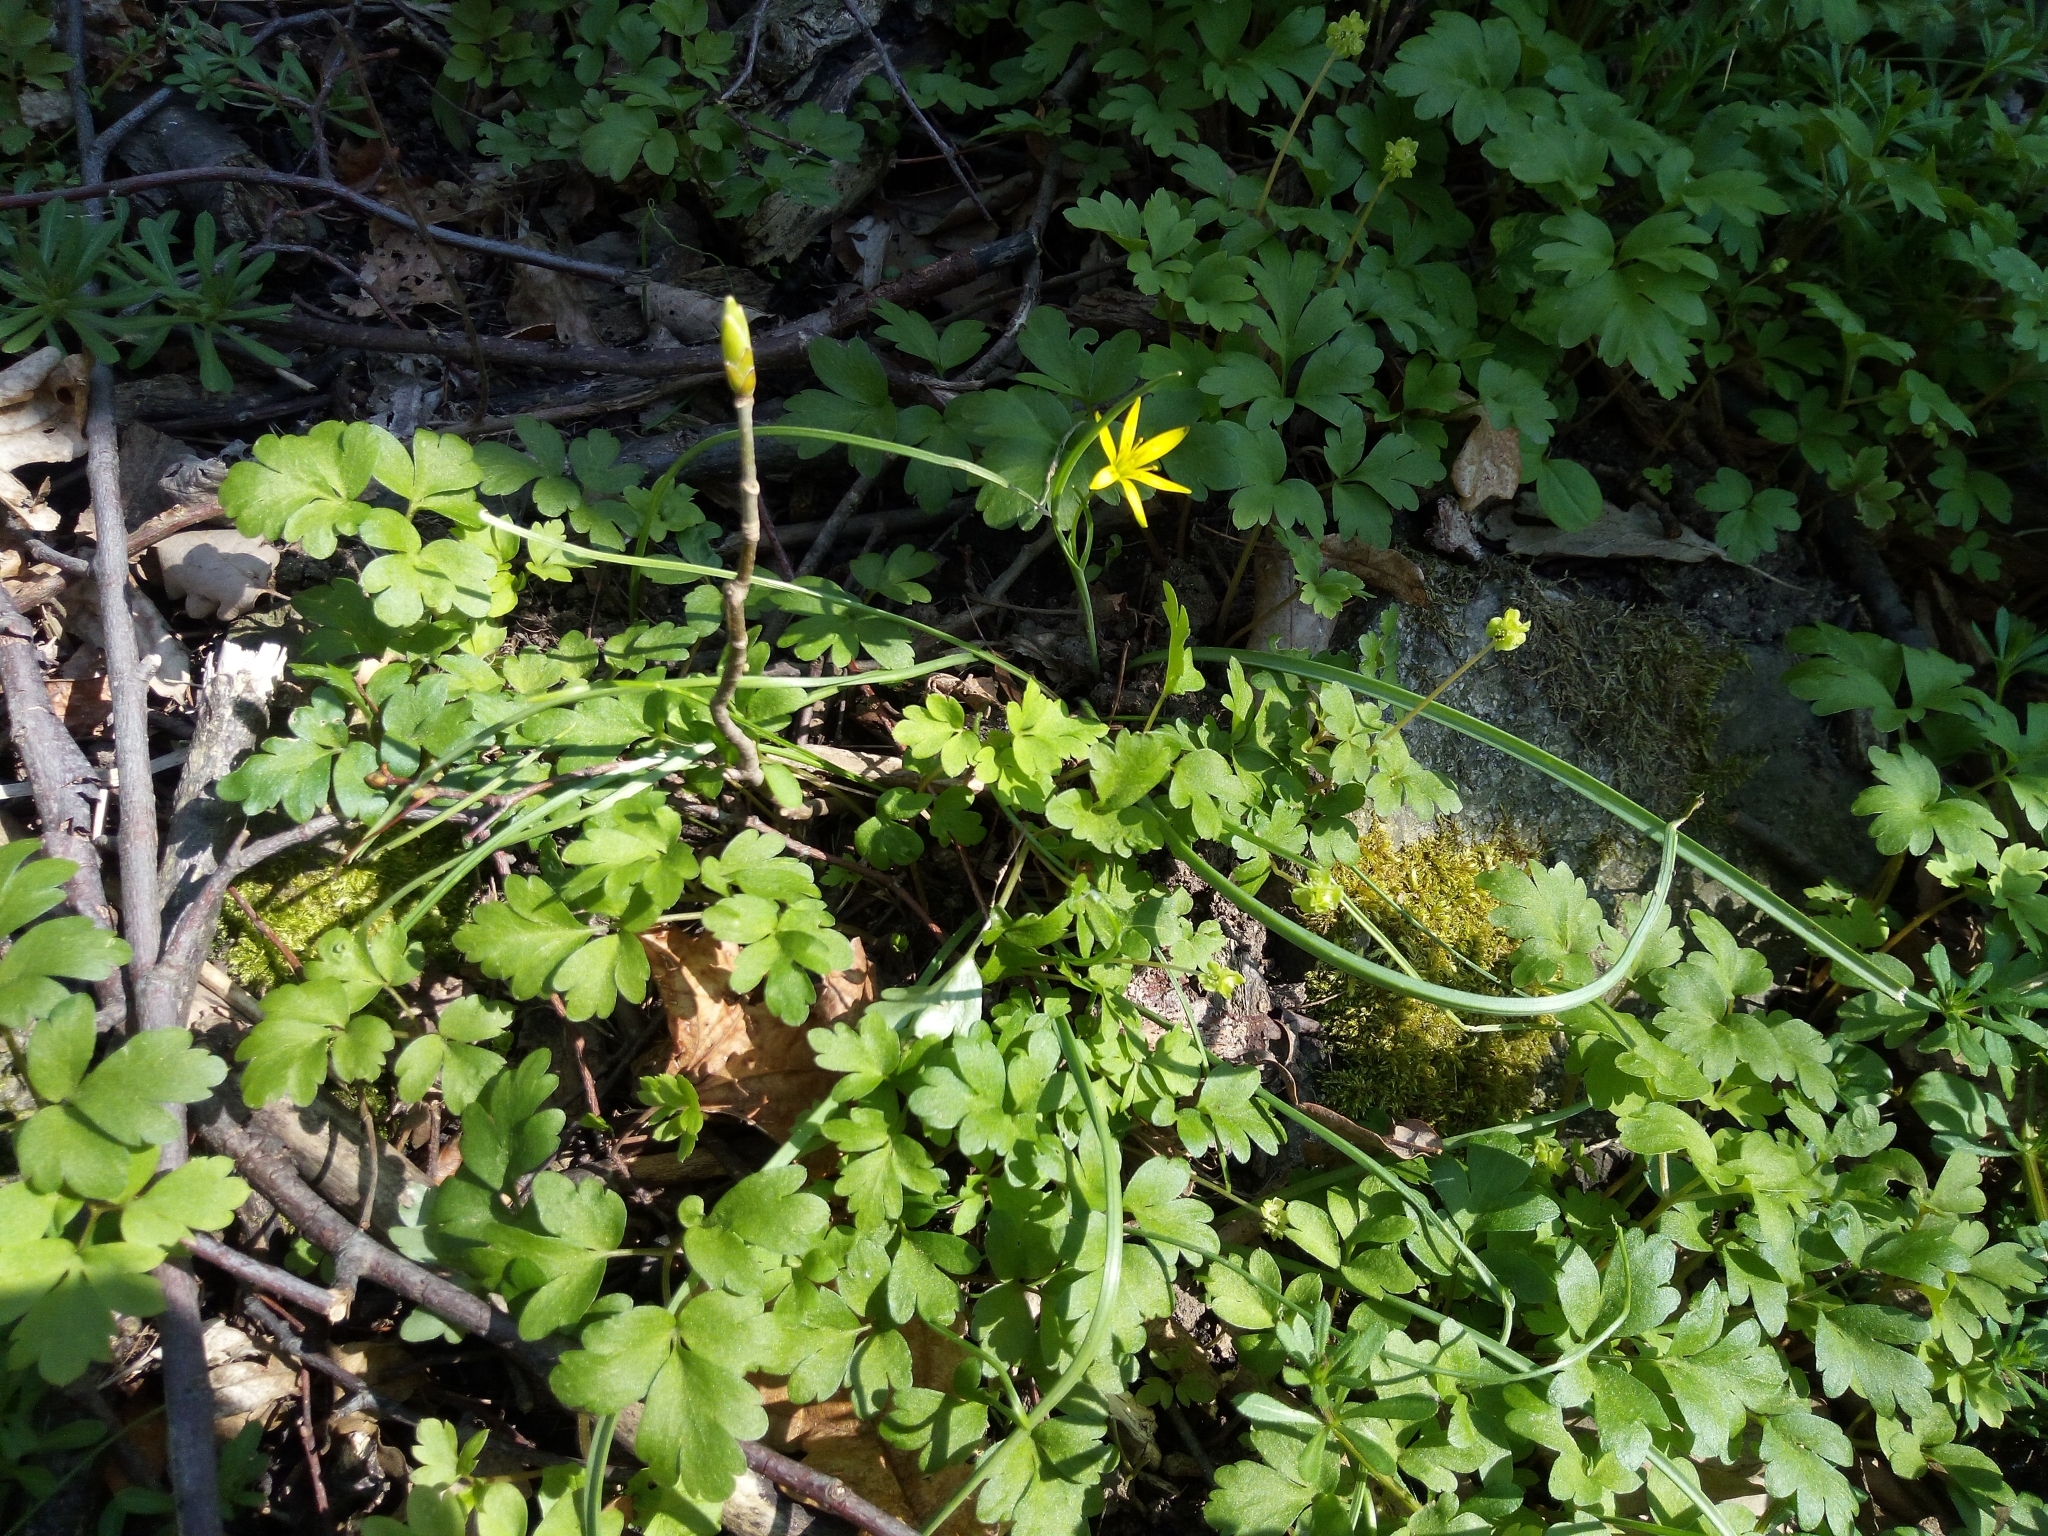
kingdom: Plantae
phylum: Tracheophyta
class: Liliopsida
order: Liliales
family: Liliaceae
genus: Gagea
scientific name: Gagea pratensis
